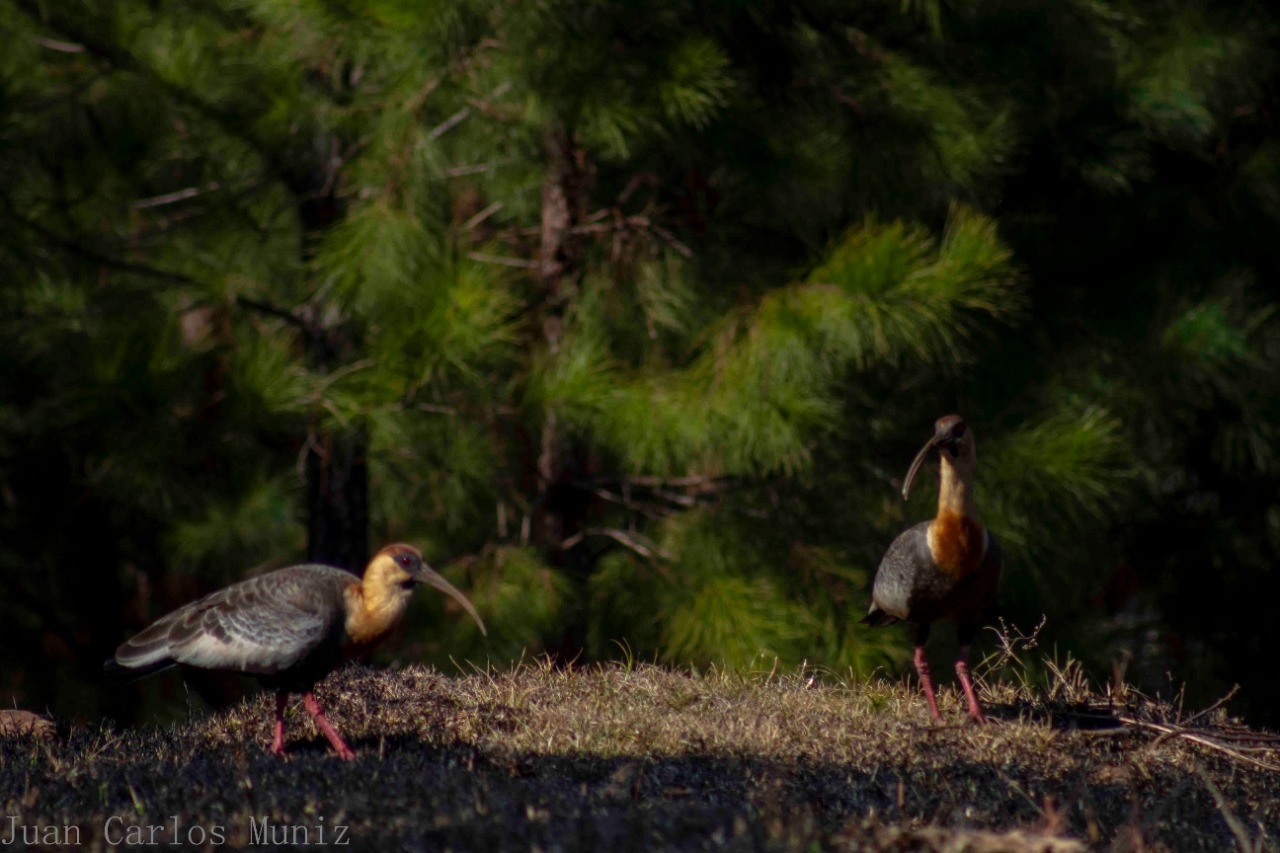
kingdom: Animalia
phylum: Chordata
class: Aves
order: Pelecaniformes
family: Threskiornithidae
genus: Theristicus
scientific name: Theristicus caudatus
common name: Buff-necked ibis
